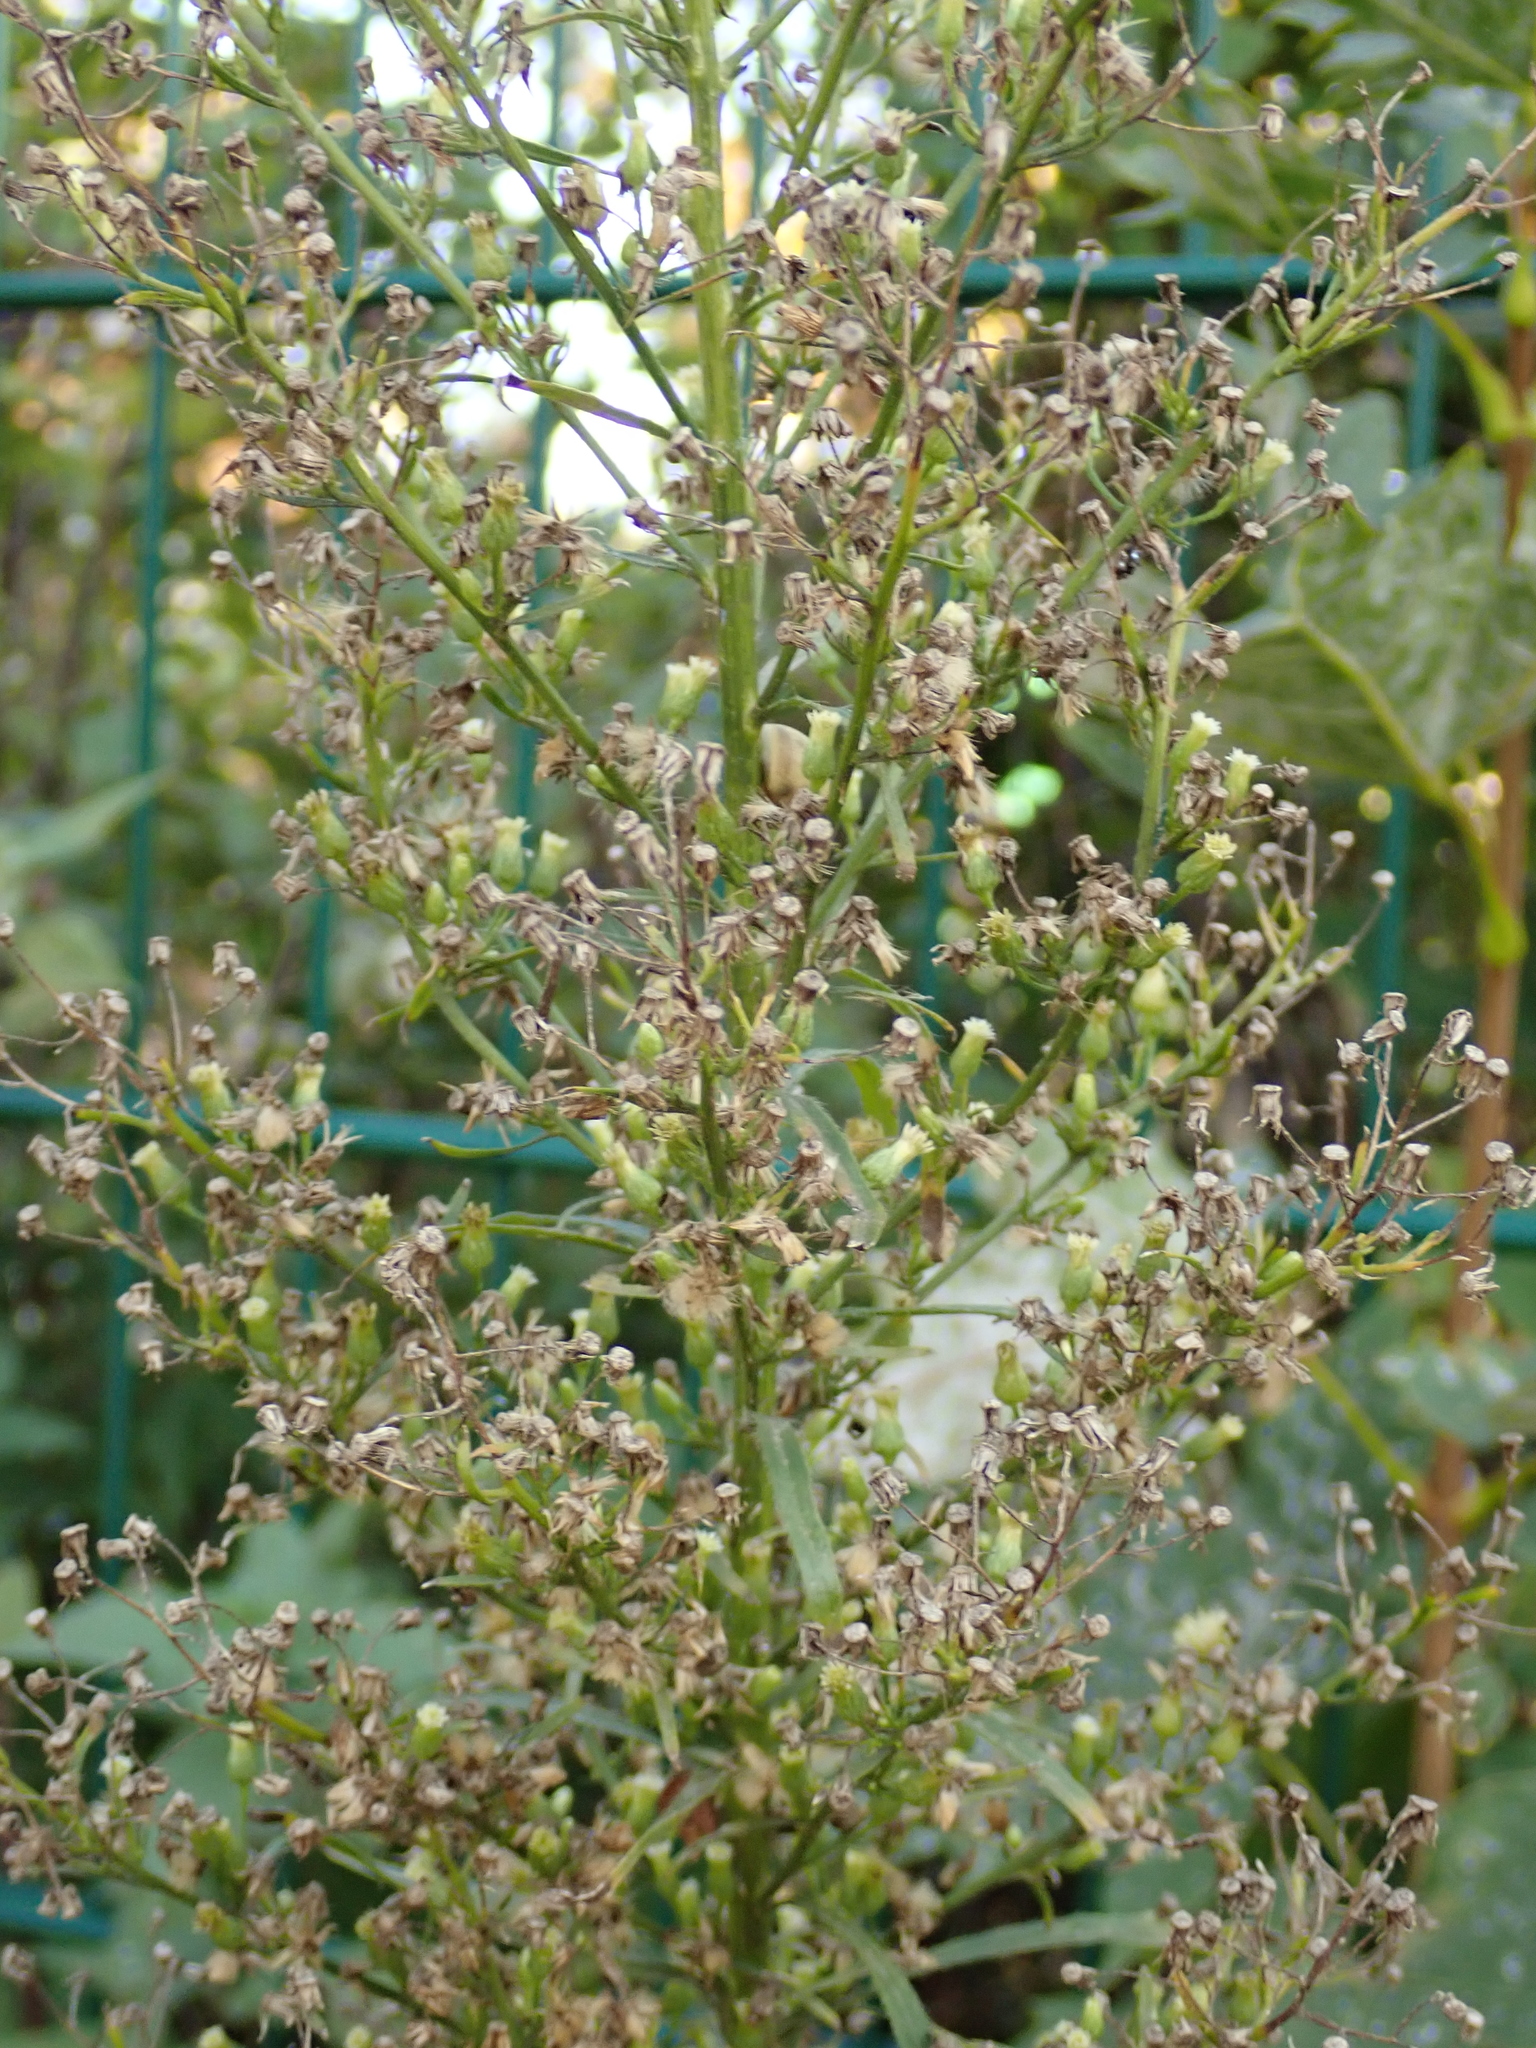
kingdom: Plantae
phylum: Tracheophyta
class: Magnoliopsida
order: Asterales
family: Asteraceae
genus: Erigeron
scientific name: Erigeron canadensis
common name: Canadian fleabane
